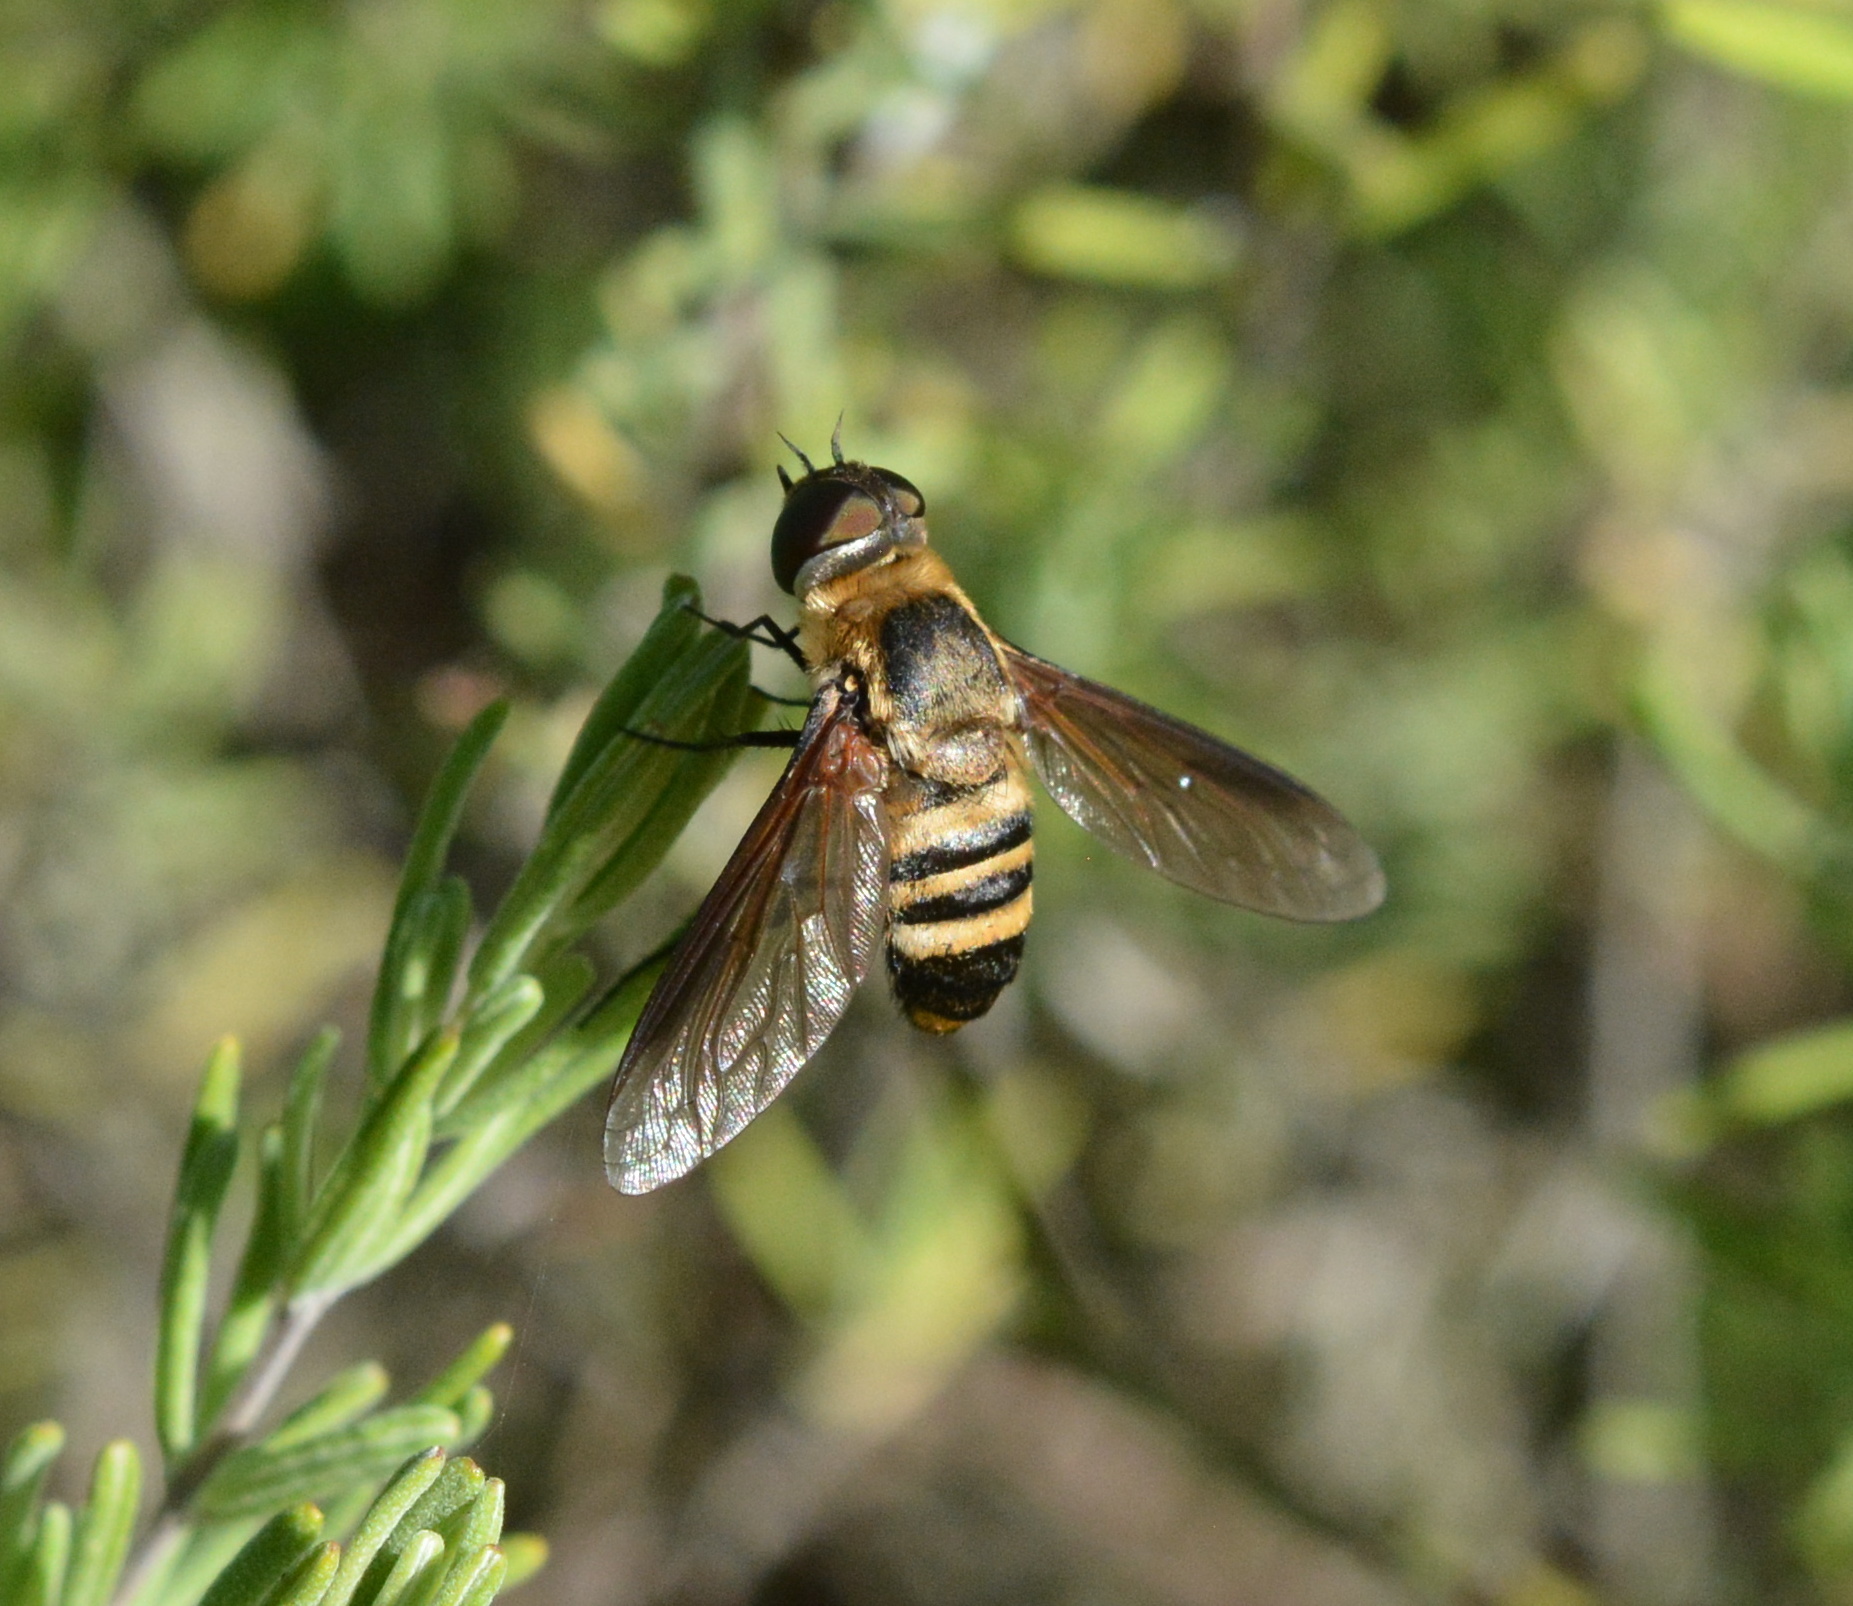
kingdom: Animalia
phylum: Arthropoda
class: Insecta
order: Diptera
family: Bombyliidae
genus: Exoprosopa
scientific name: Exoprosopa fasciata
